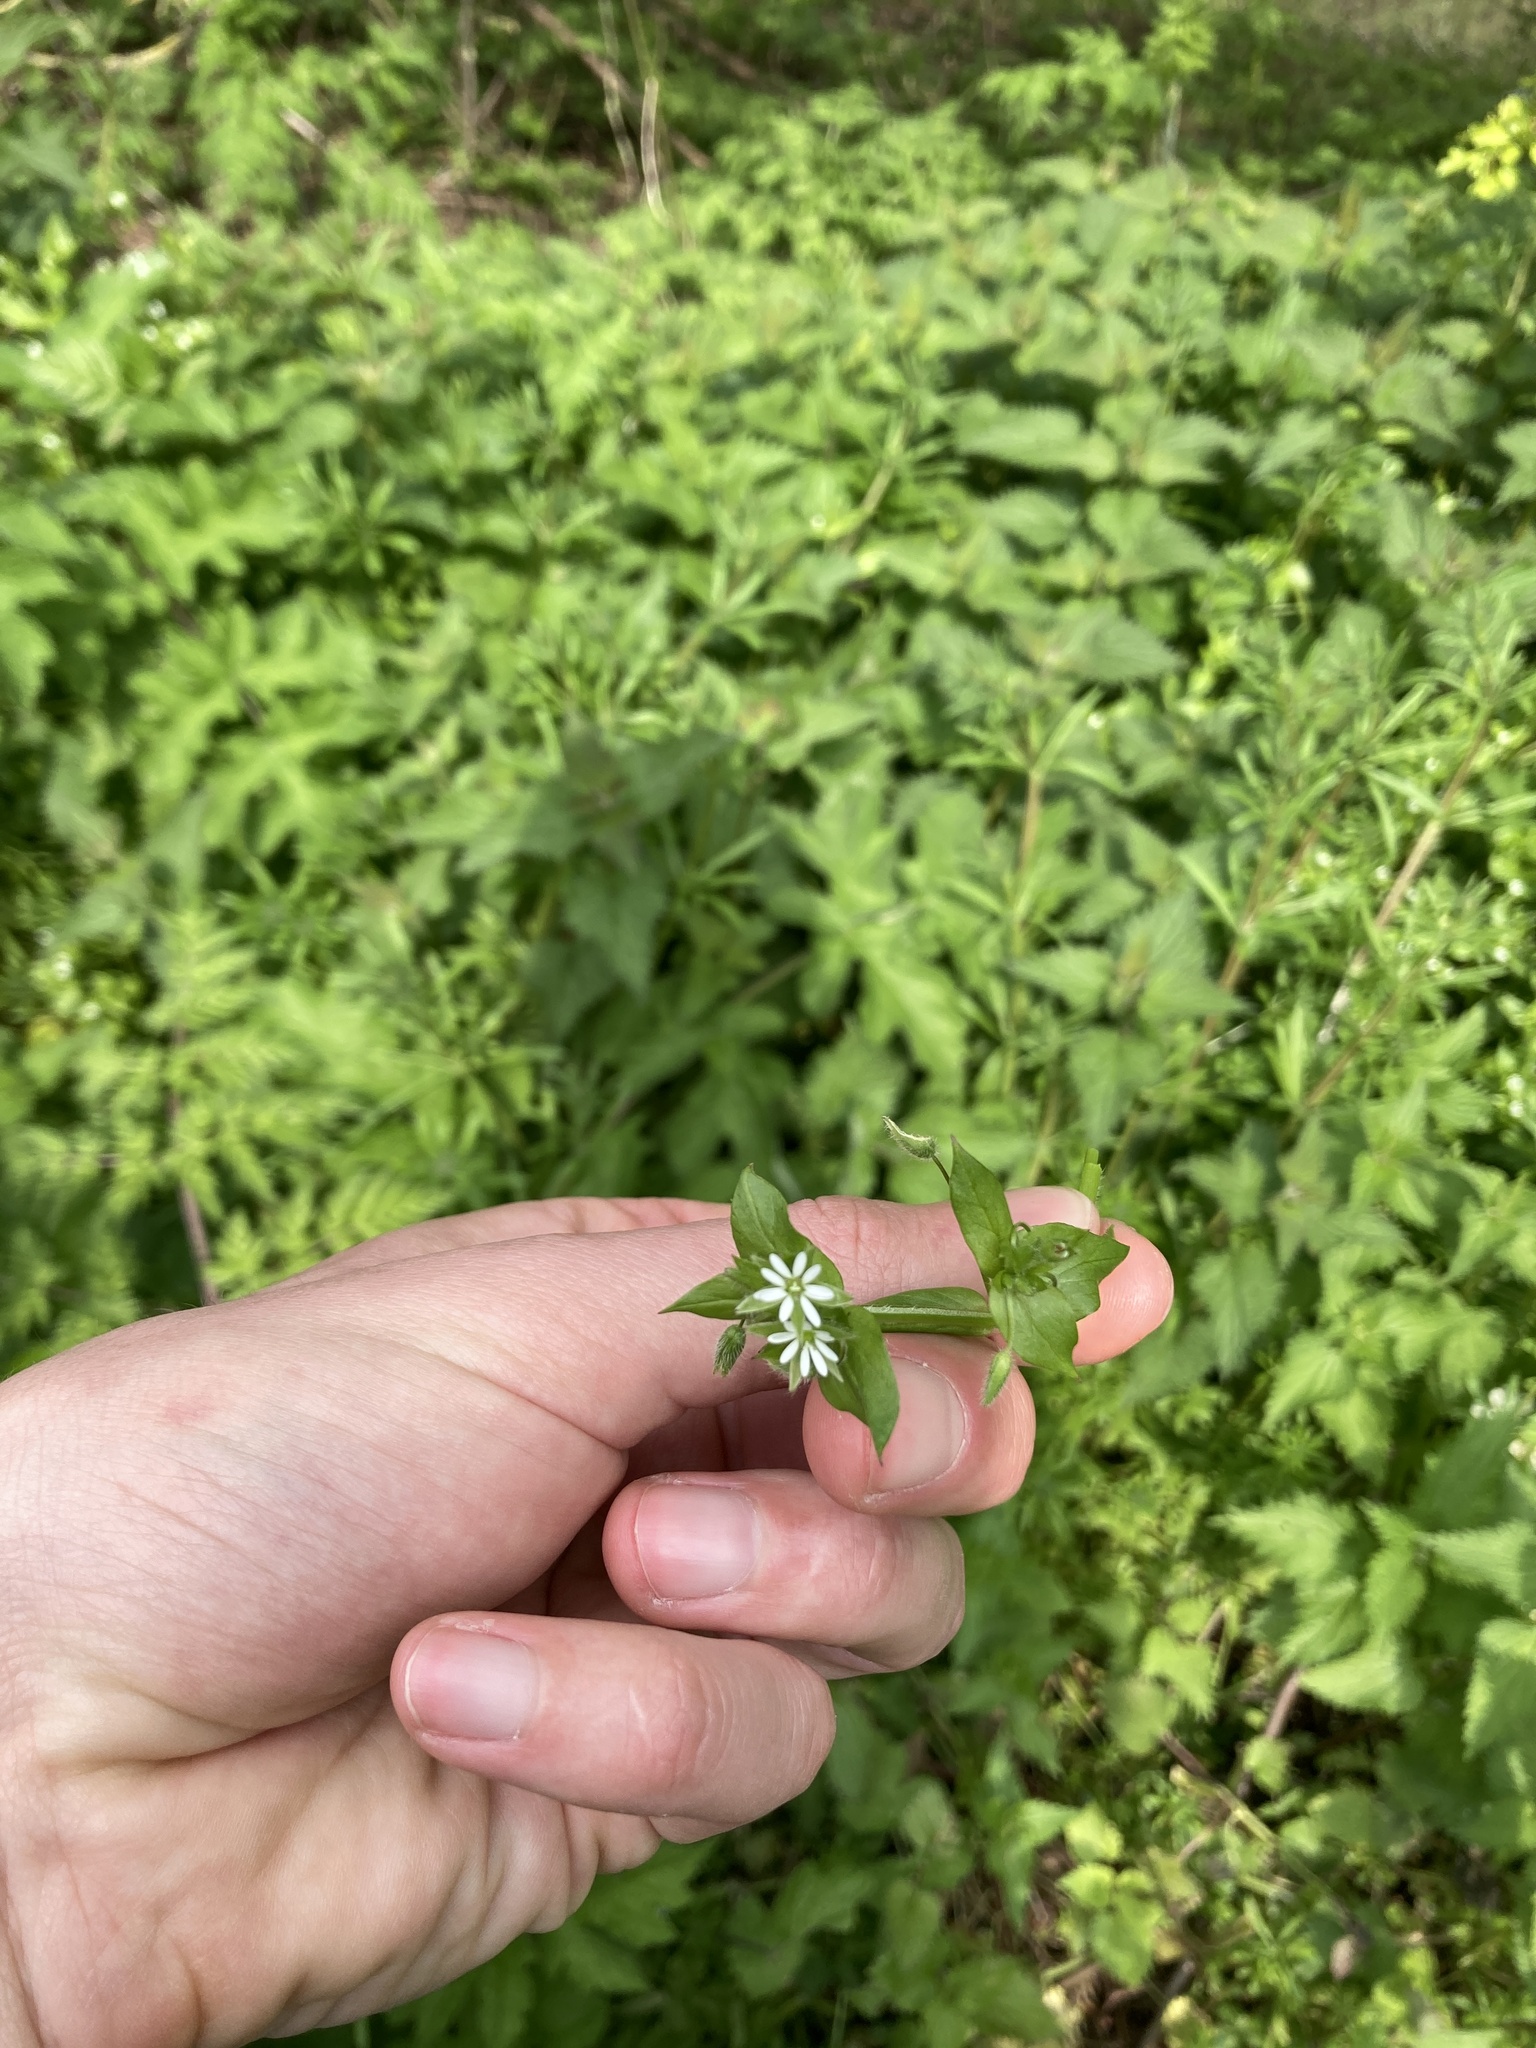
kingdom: Plantae
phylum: Tracheophyta
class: Magnoliopsida
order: Caryophyllales
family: Caryophyllaceae
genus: Stellaria
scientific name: Stellaria media
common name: Common chickweed
